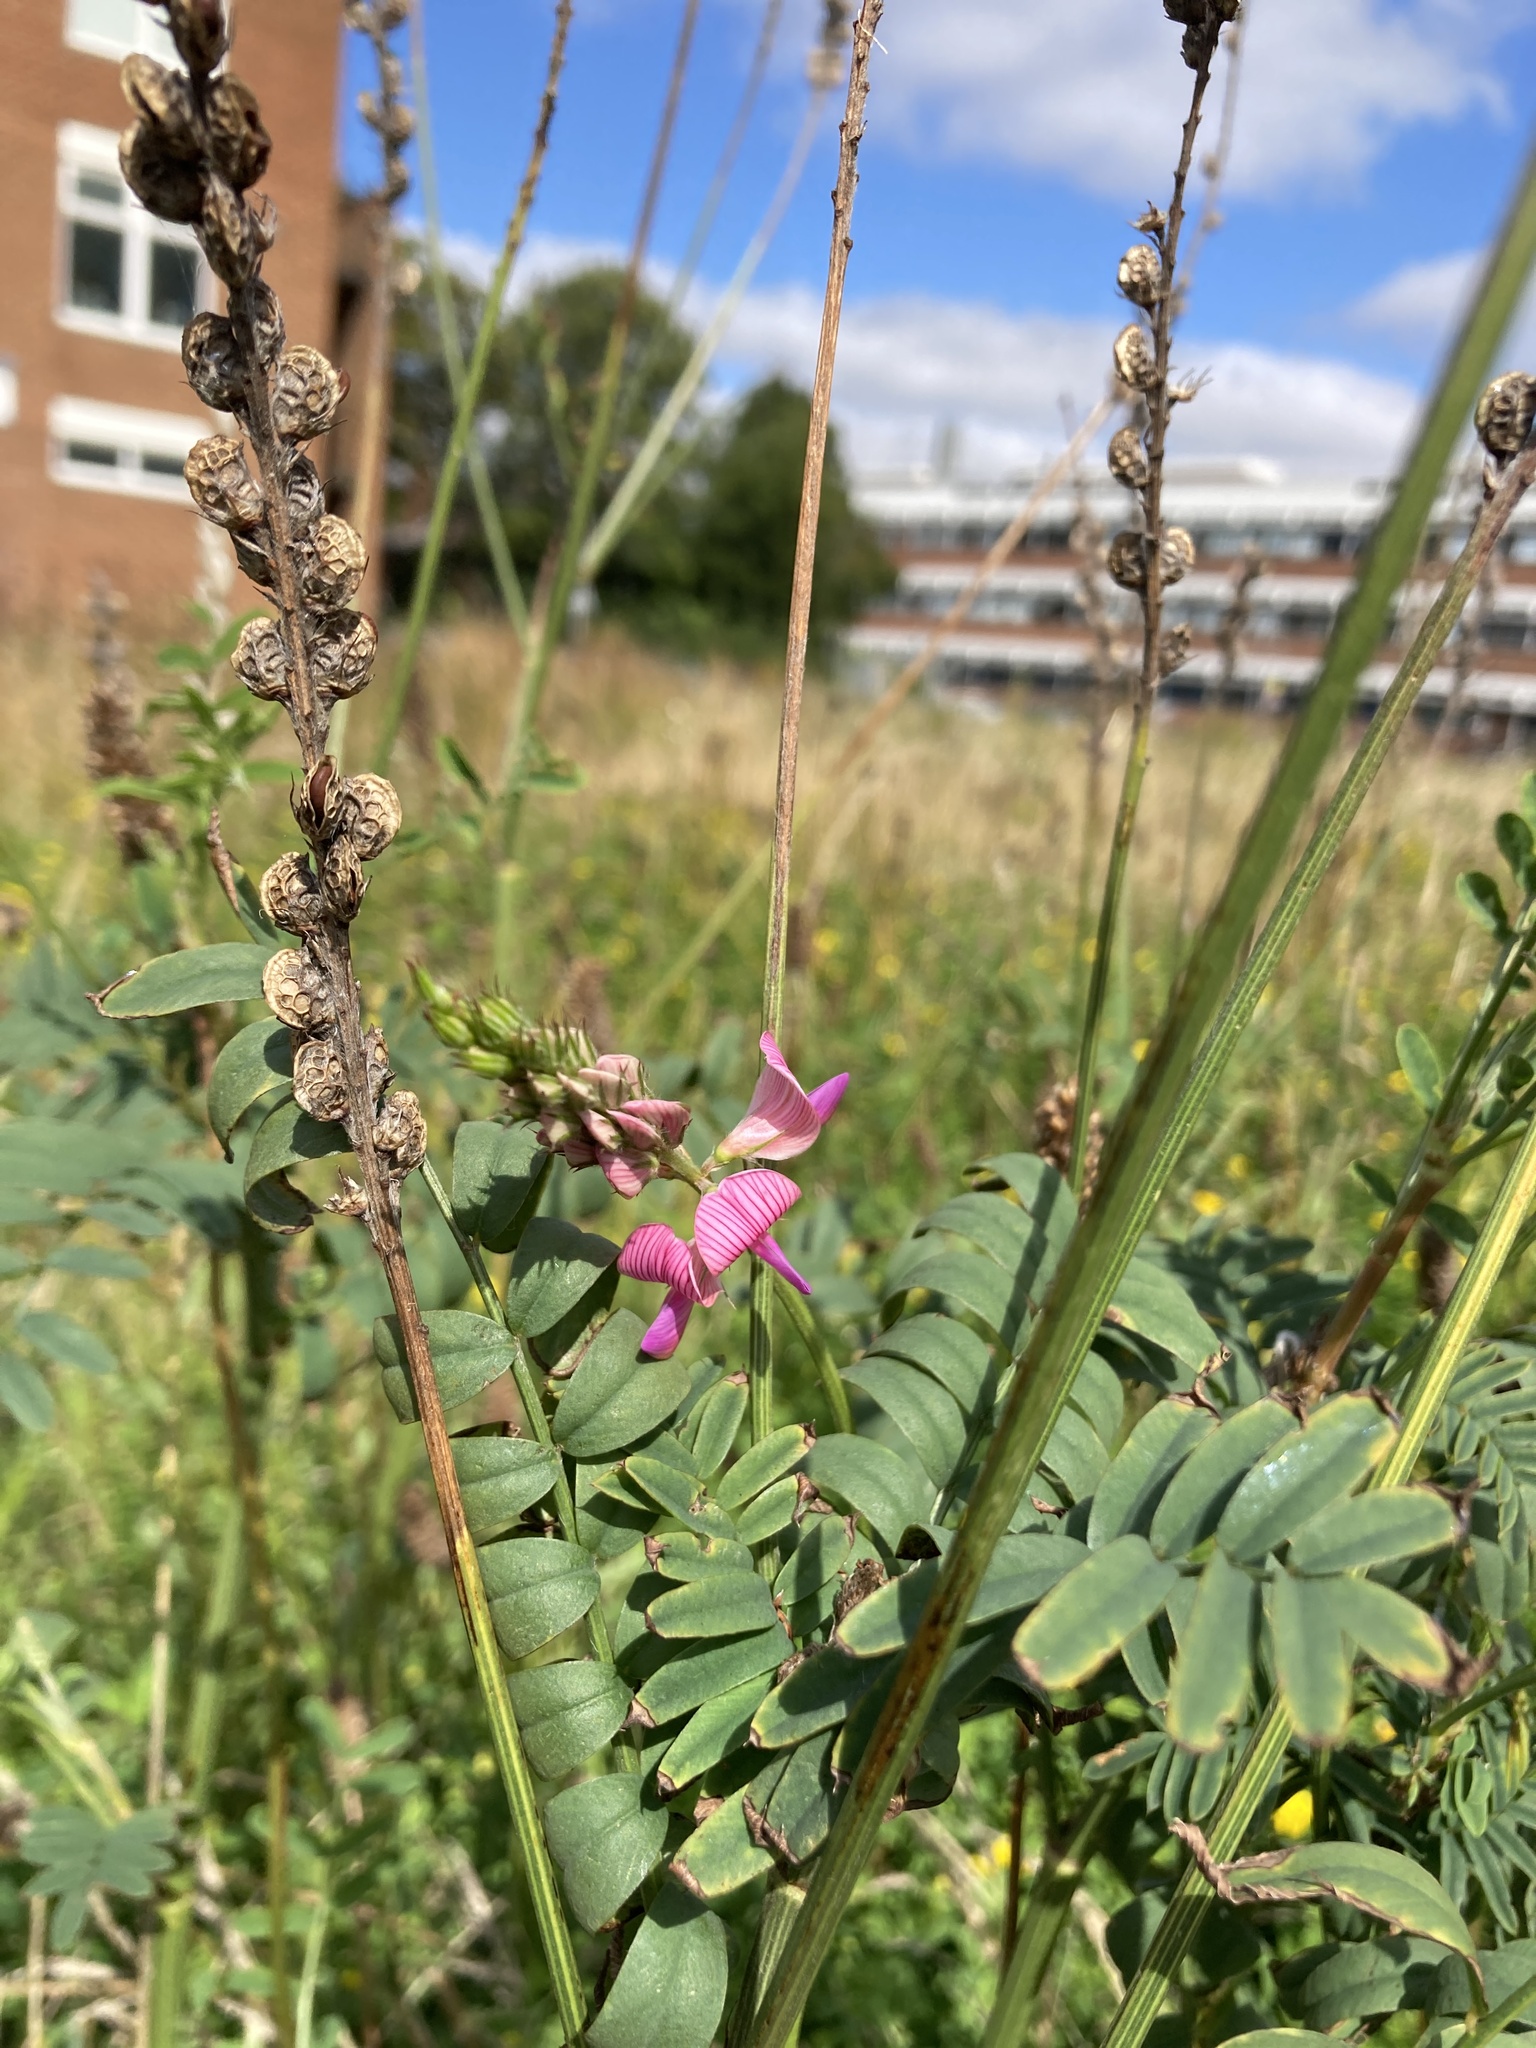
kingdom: Plantae
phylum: Tracheophyta
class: Magnoliopsida
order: Fabales
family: Fabaceae
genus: Vicia
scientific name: Vicia sativa
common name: Garden vetch
